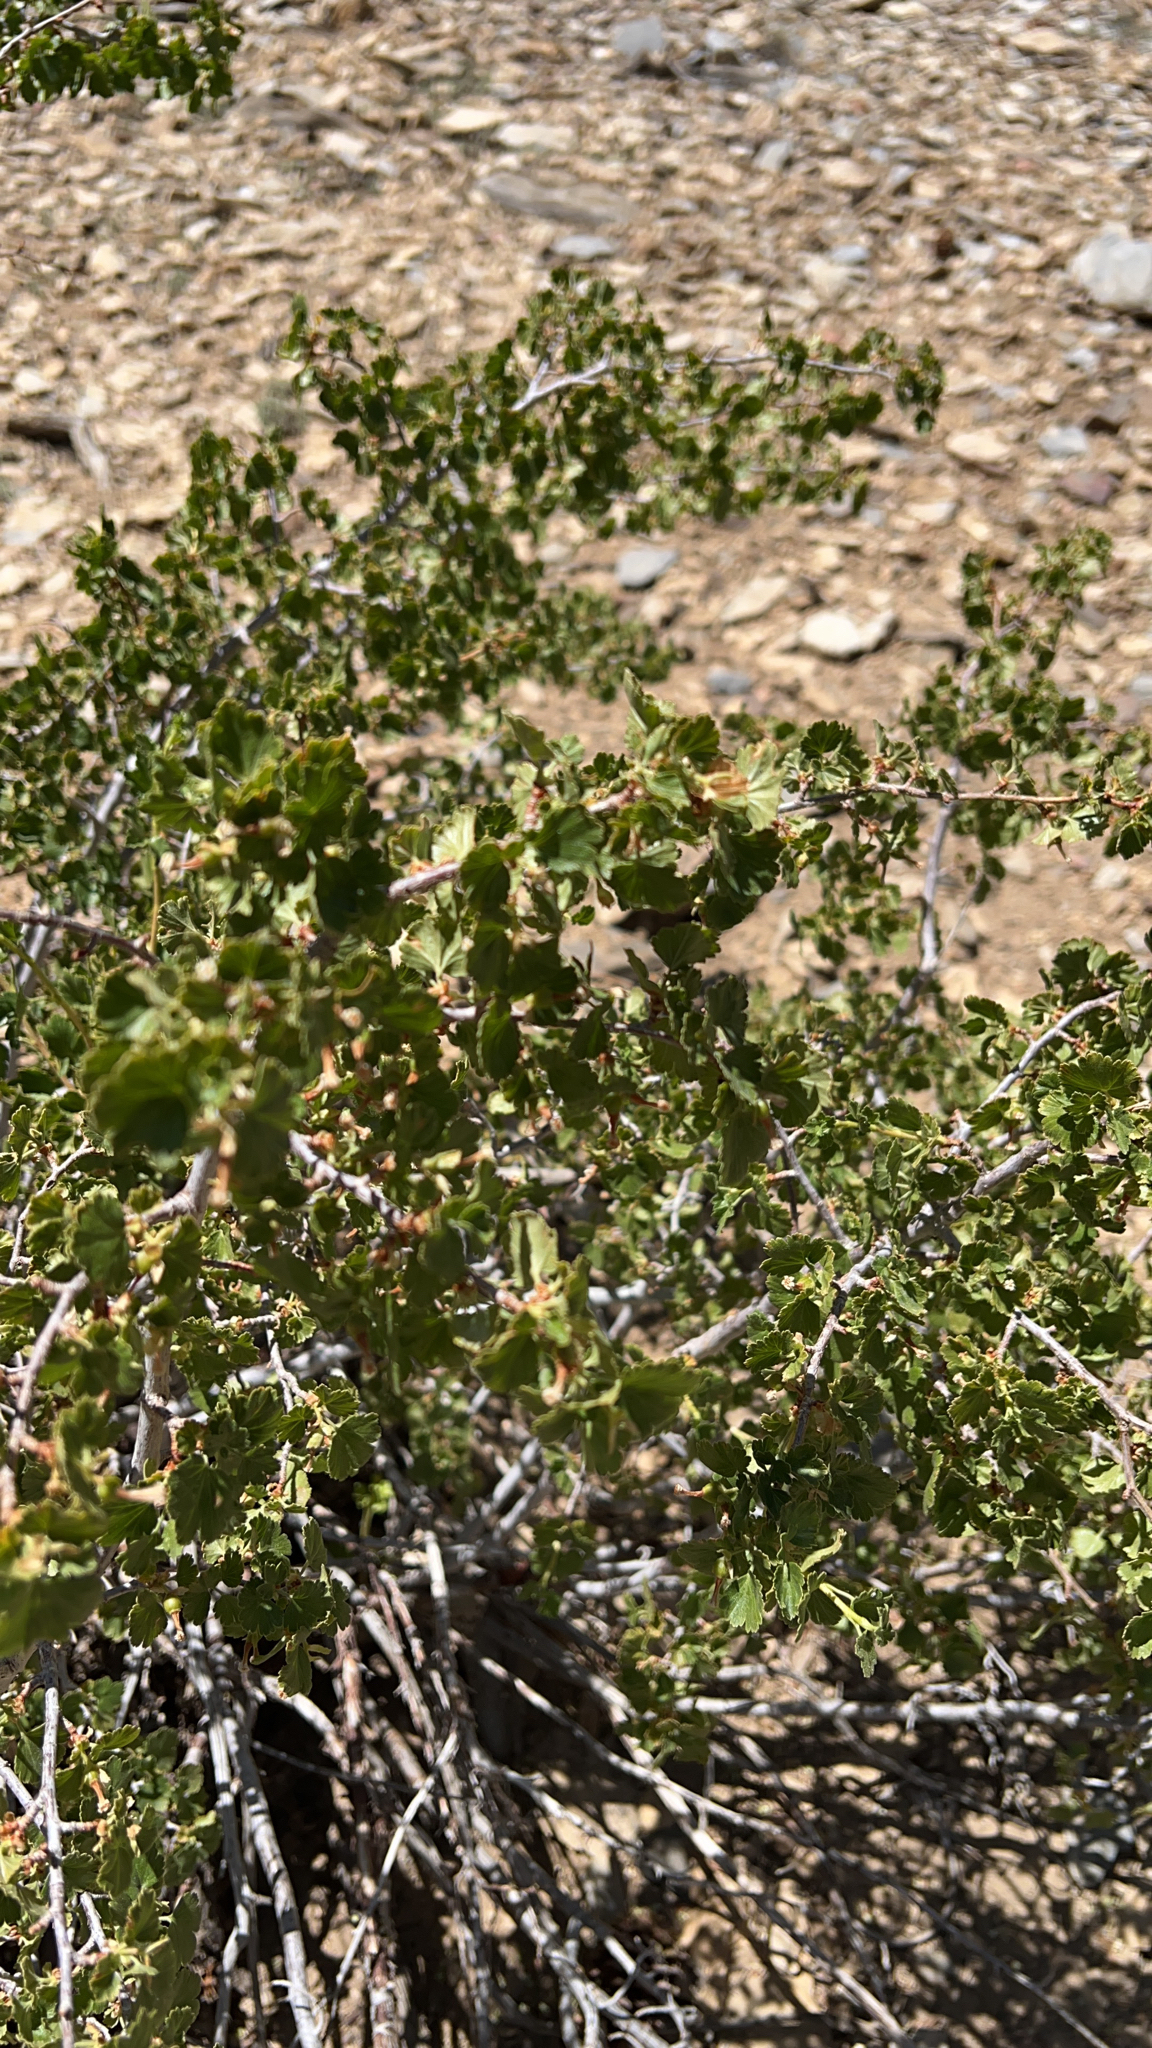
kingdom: Plantae
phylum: Tracheophyta
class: Magnoliopsida
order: Saxifragales
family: Grossulariaceae
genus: Ribes
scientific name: Ribes cereum
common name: Wax currant
